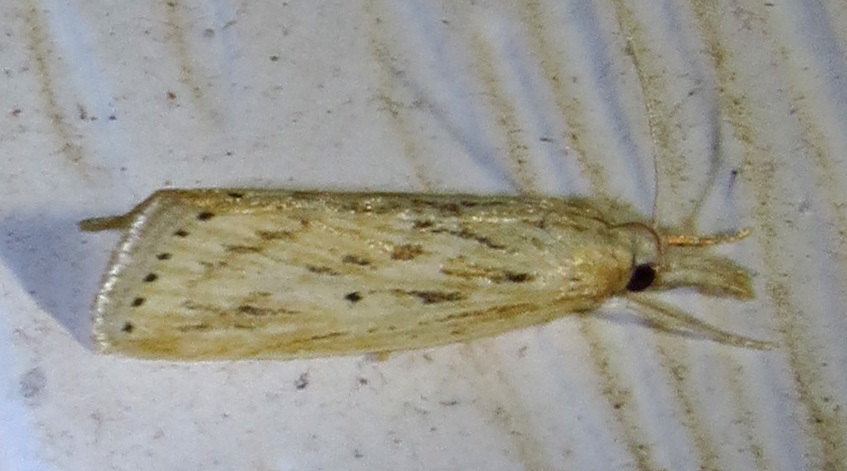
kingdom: Animalia
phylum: Arthropoda
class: Insecta
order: Lepidoptera
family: Crambidae
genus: Diatraea
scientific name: Diatraea lisetta
